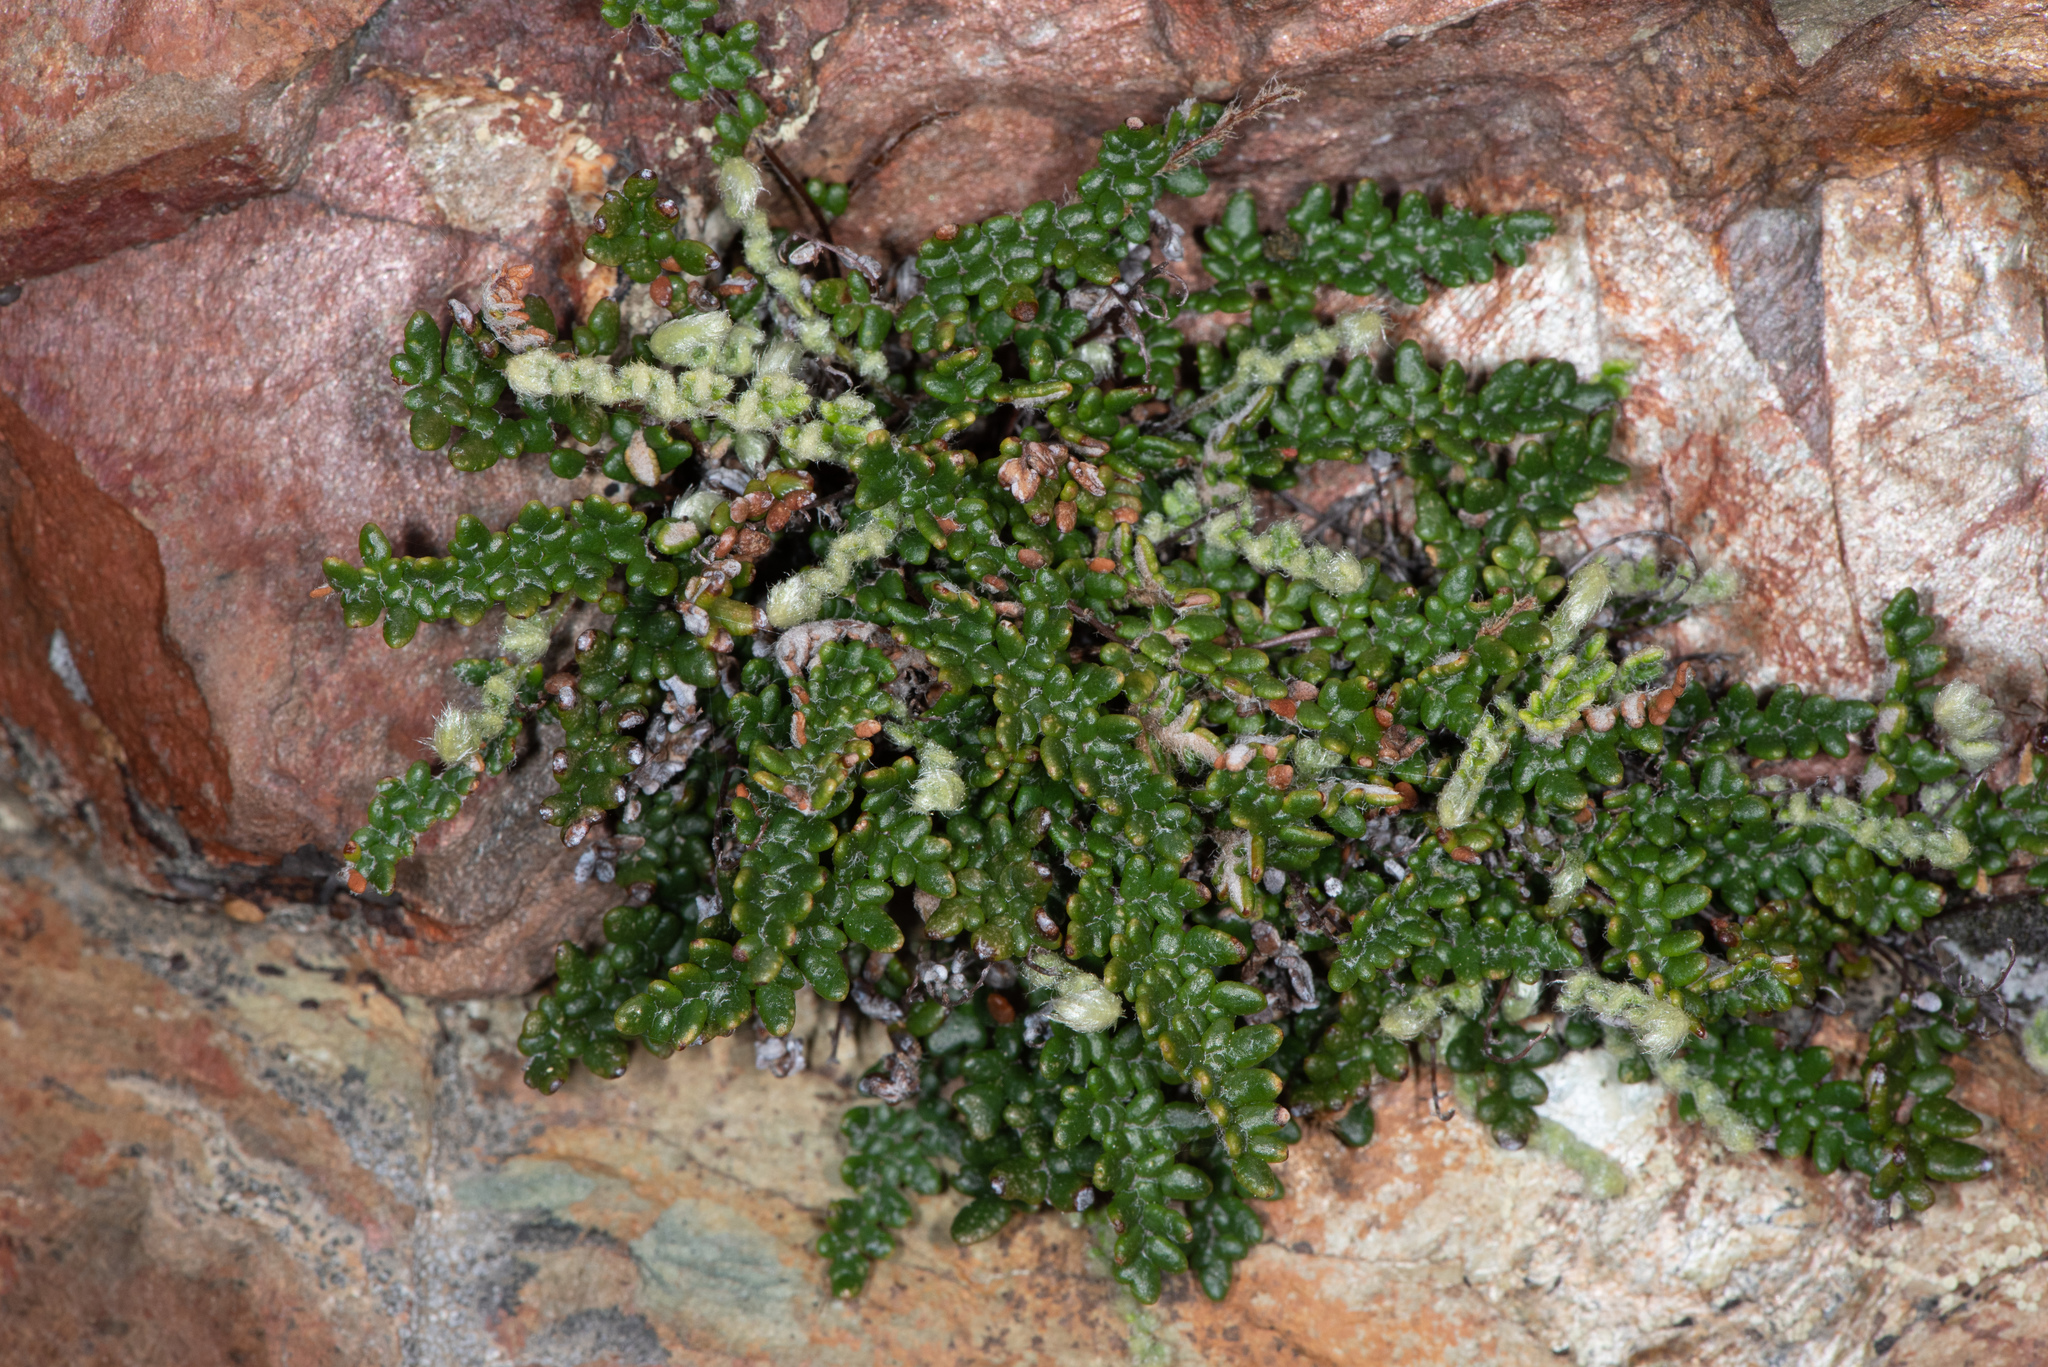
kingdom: Plantae
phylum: Tracheophyta
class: Polypodiopsida
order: Polypodiales
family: Pteridaceae
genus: Myriopteris
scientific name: Myriopteris gracillima
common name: Lace fern
